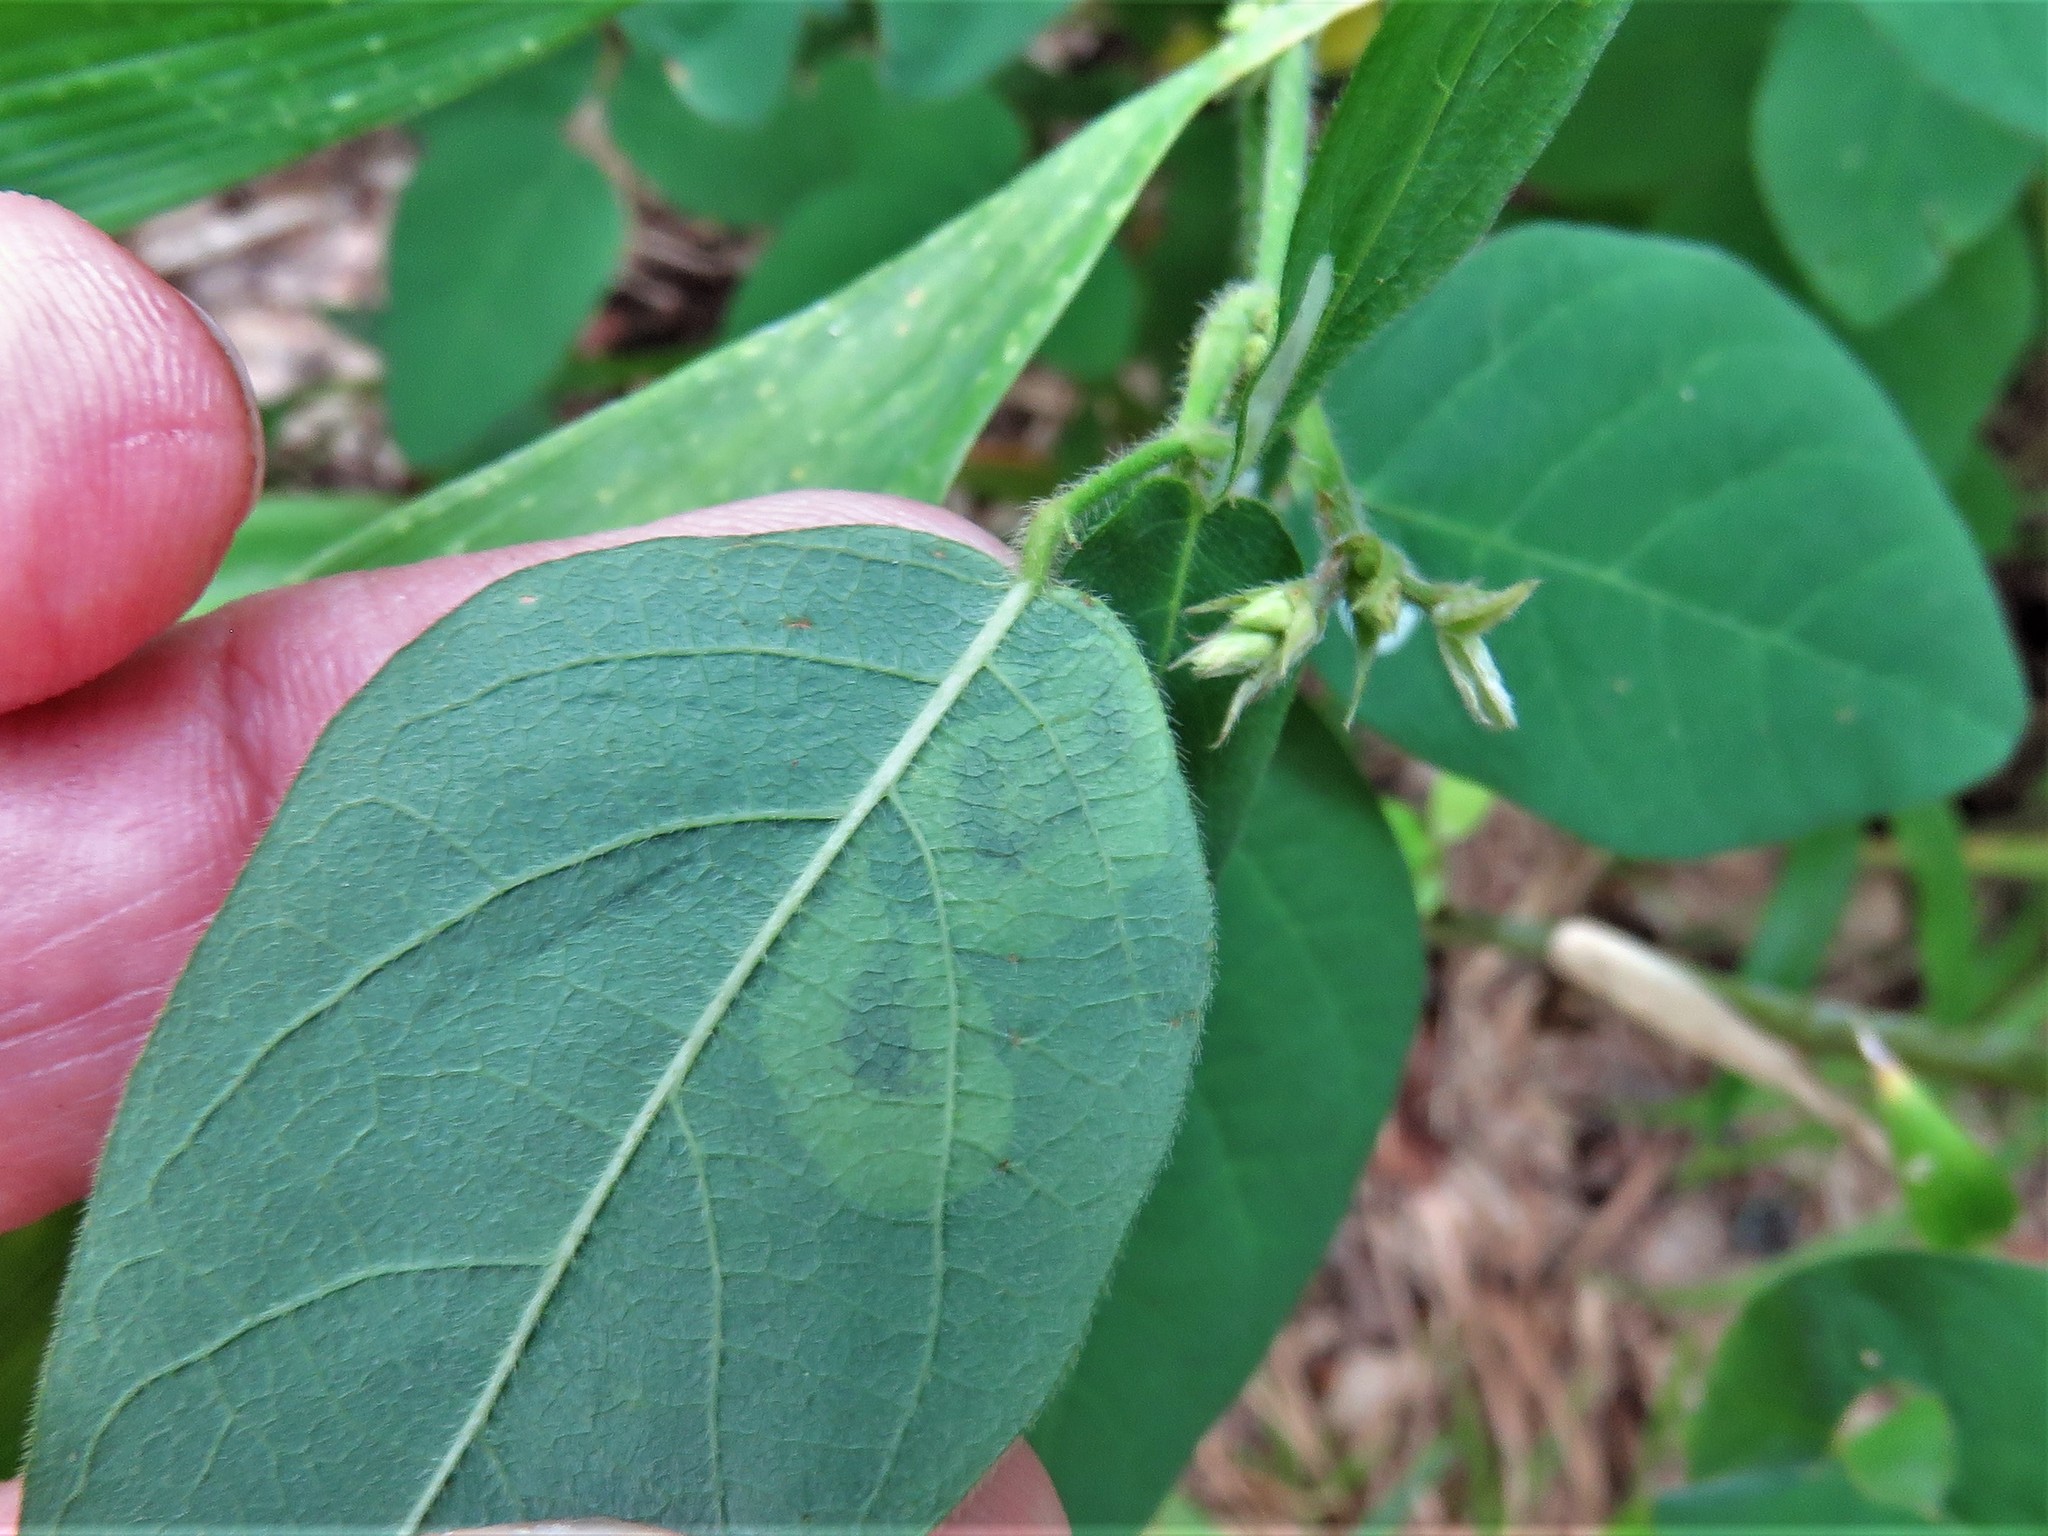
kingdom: Animalia
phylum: Arthropoda
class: Insecta
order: Lepidoptera
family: Gracillariidae
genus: Anarsioses
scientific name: Anarsioses aberrans
